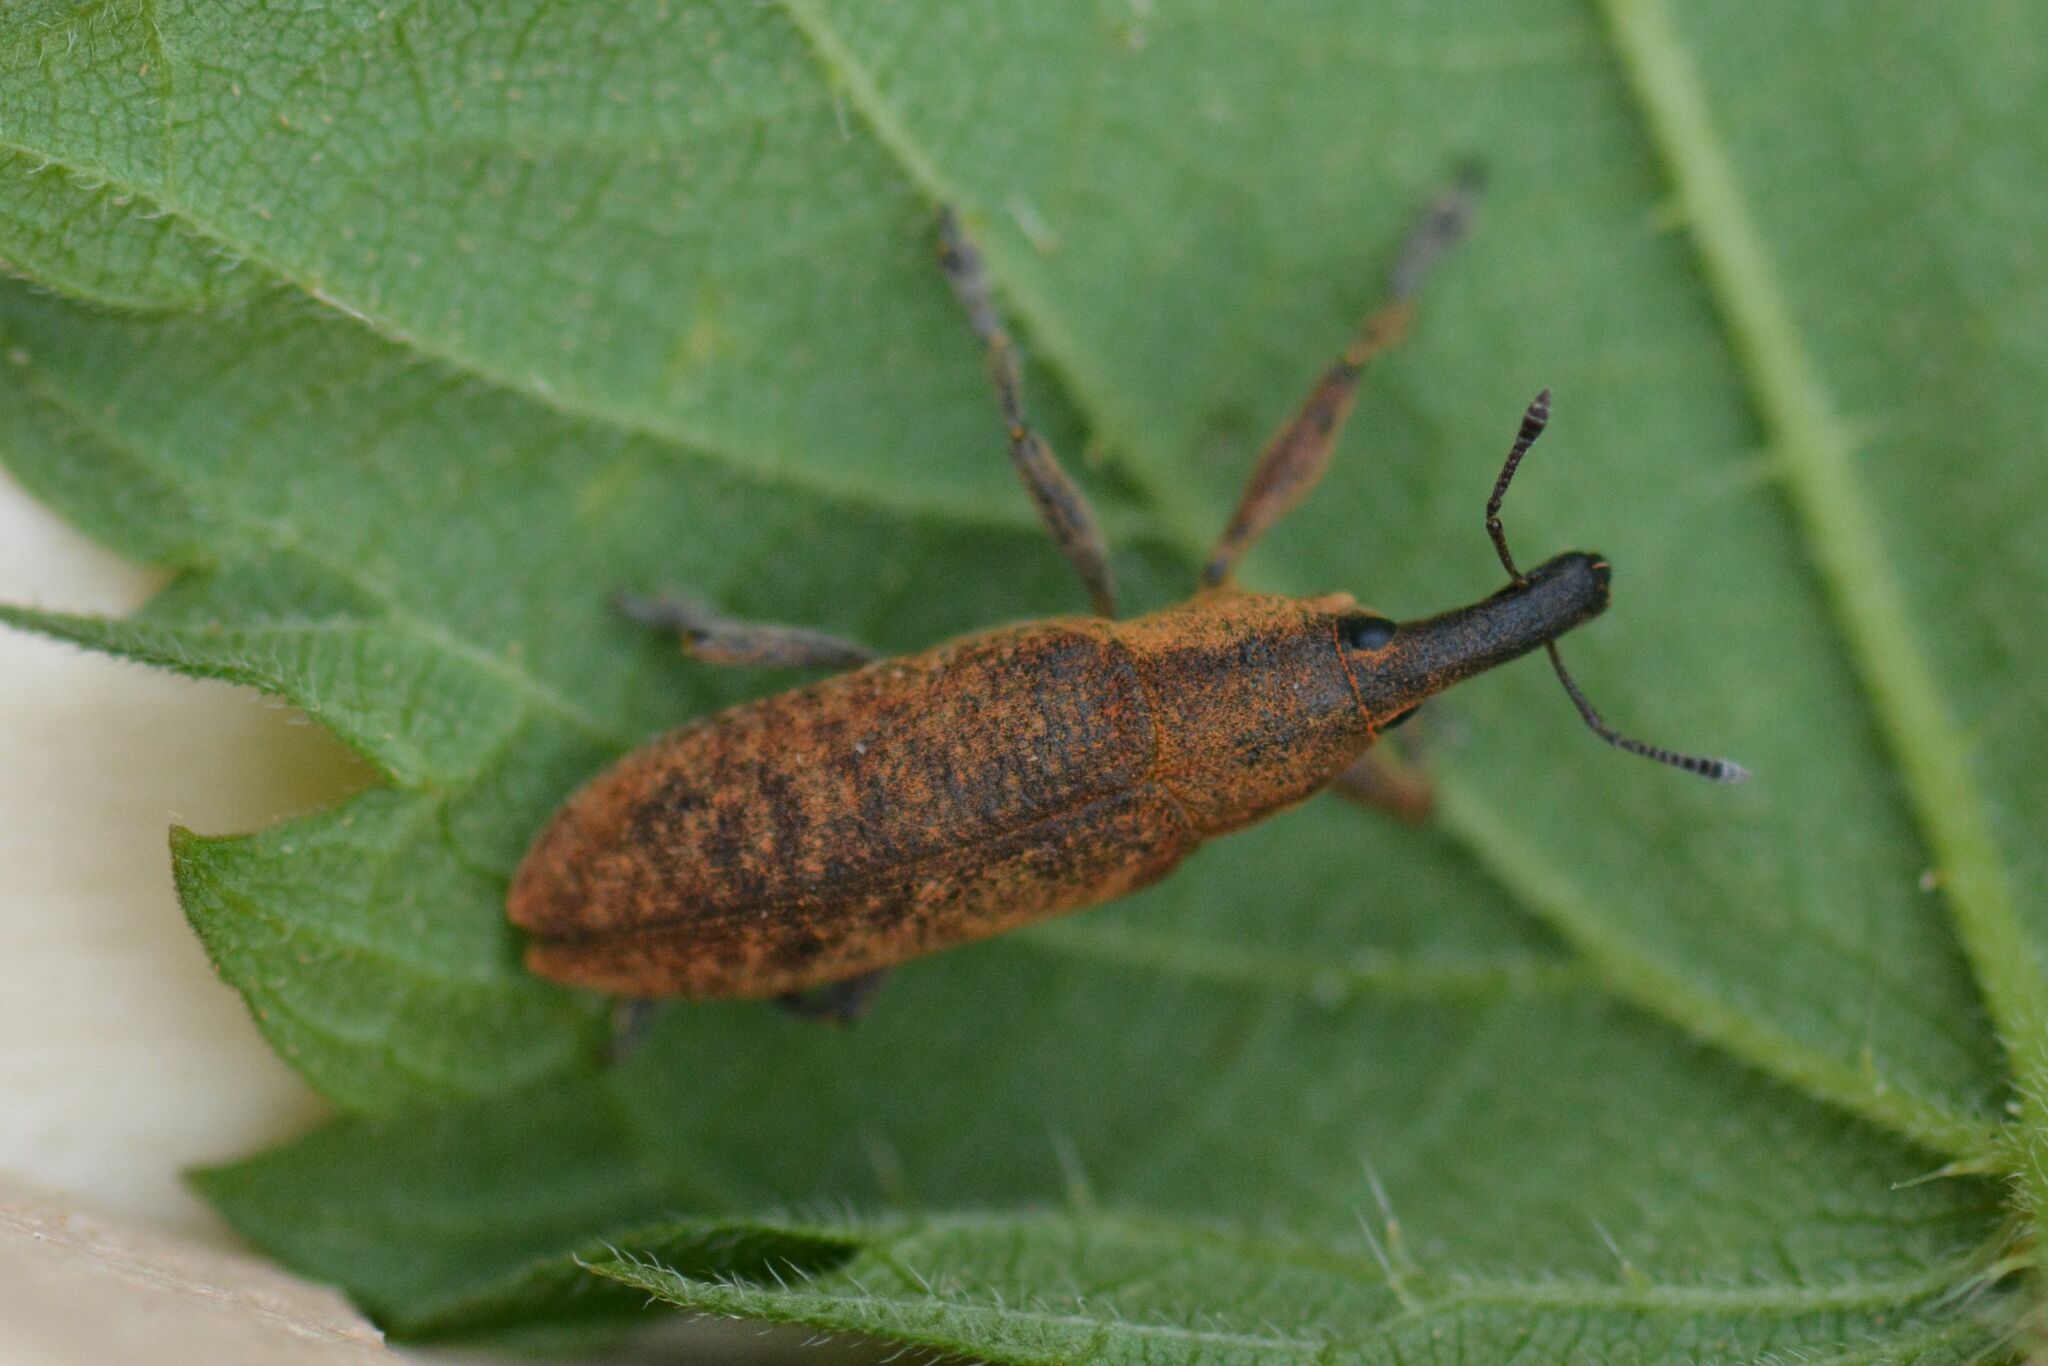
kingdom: Animalia
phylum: Arthropoda
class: Insecta
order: Coleoptera
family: Curculionidae
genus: Lixus
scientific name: Lixus pulverulentus
